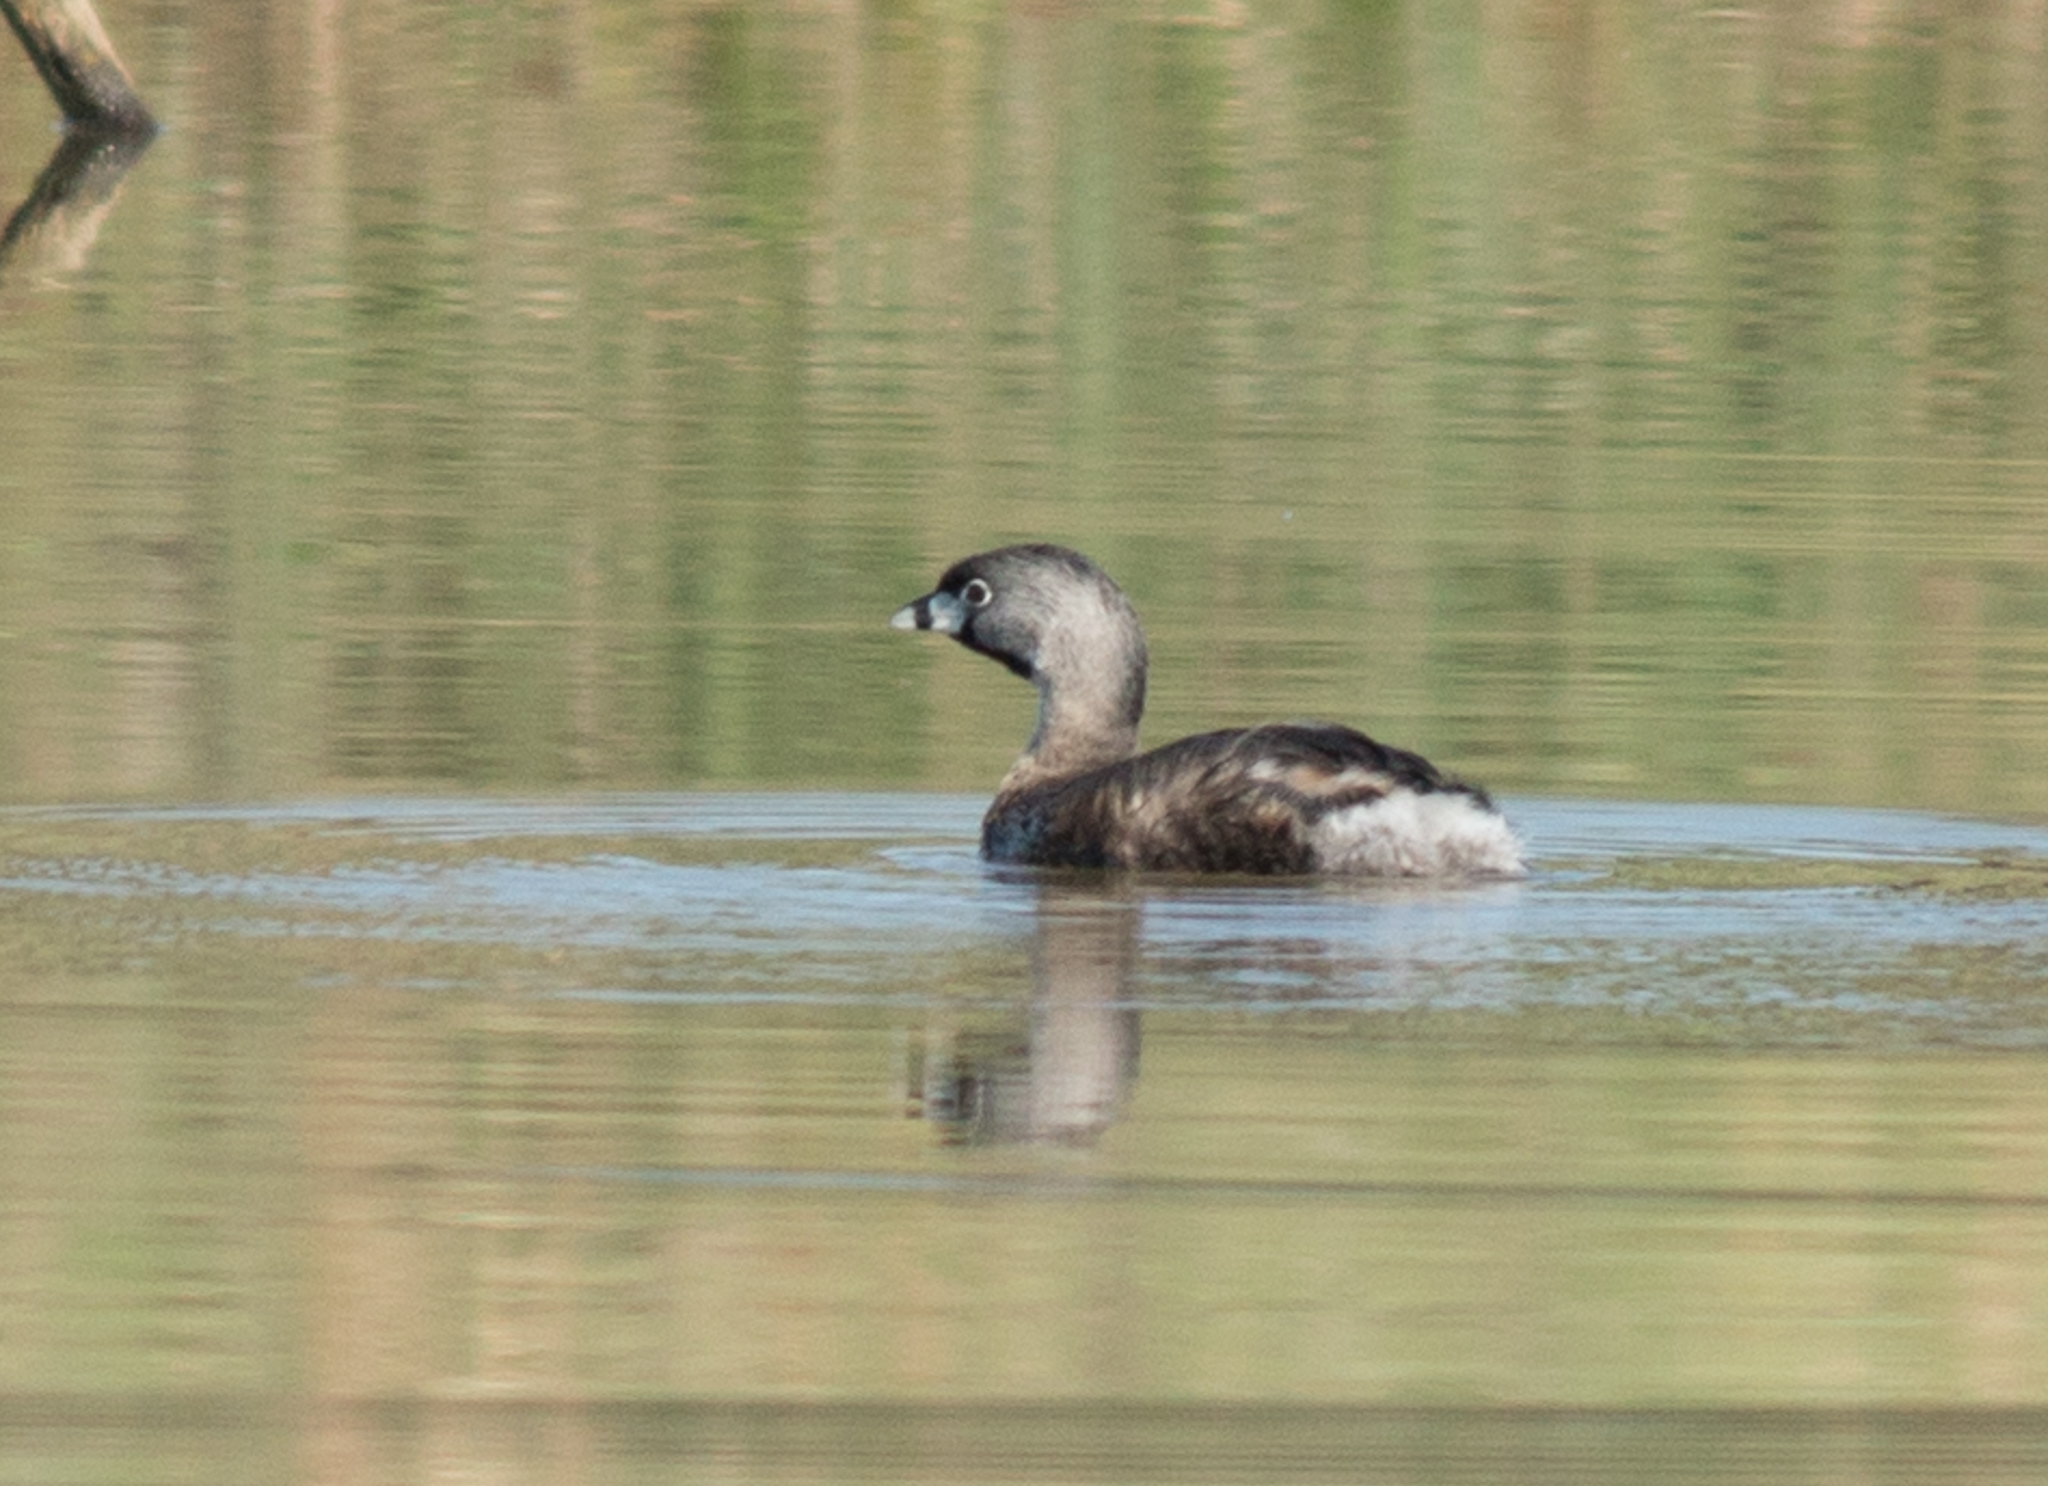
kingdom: Animalia
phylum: Chordata
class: Aves
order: Podicipediformes
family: Podicipedidae
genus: Podilymbus
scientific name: Podilymbus podiceps
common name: Pied-billed grebe
